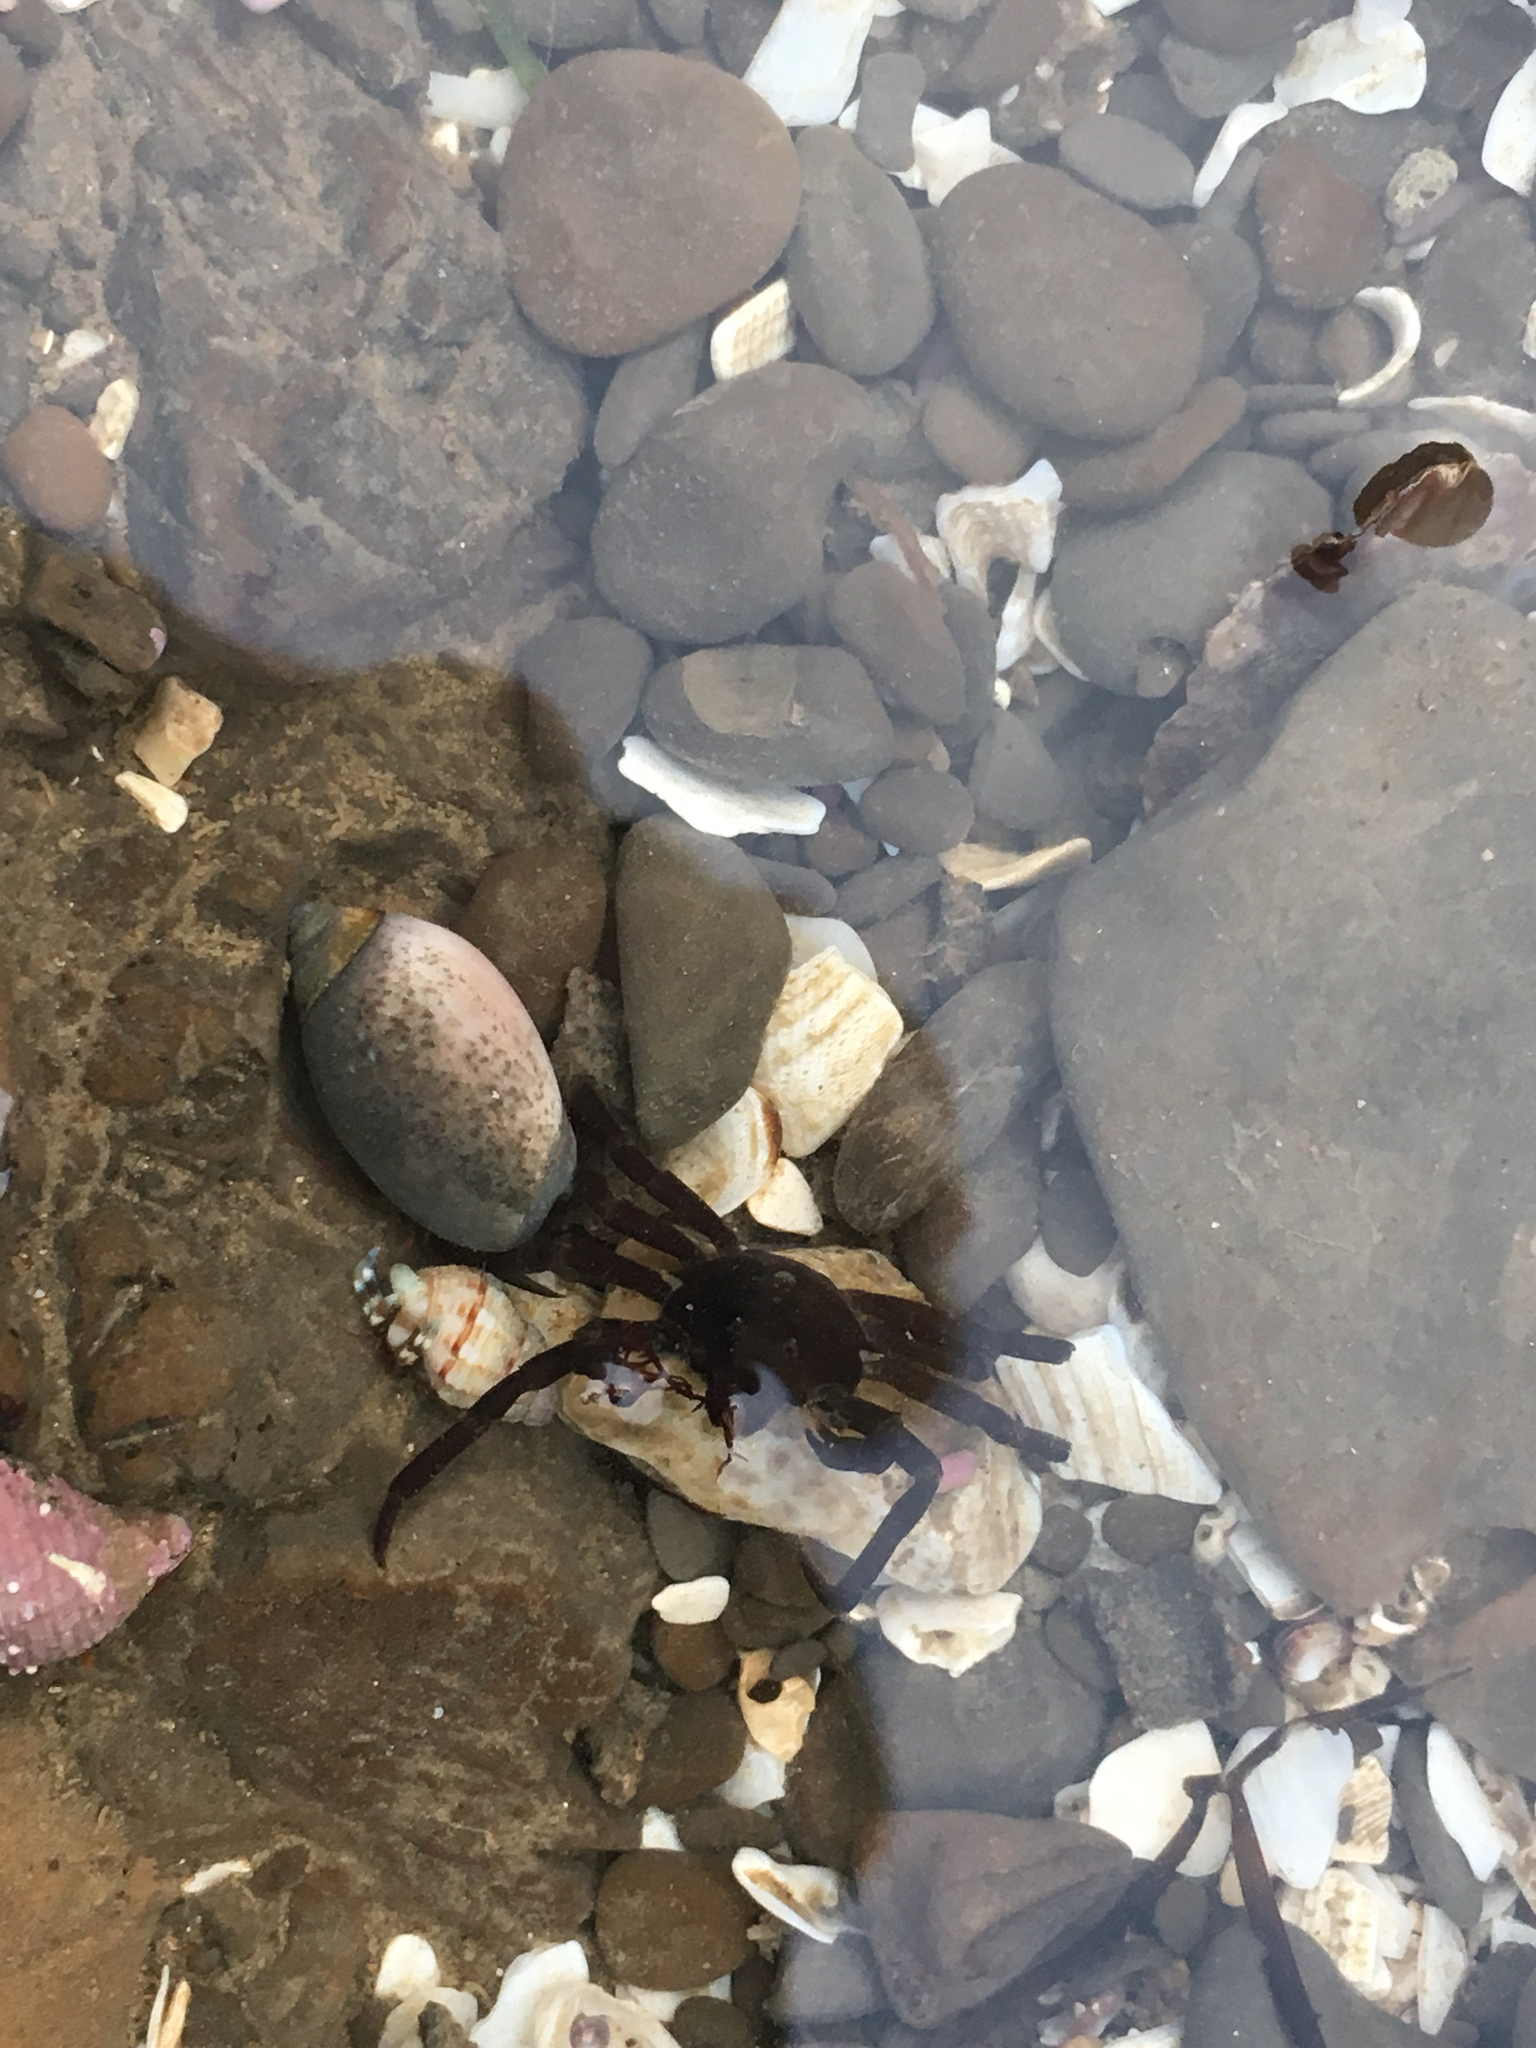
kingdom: Animalia
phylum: Arthropoda
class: Malacostraca
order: Decapoda
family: Epialtidae
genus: Pugettia
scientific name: Pugettia producta
